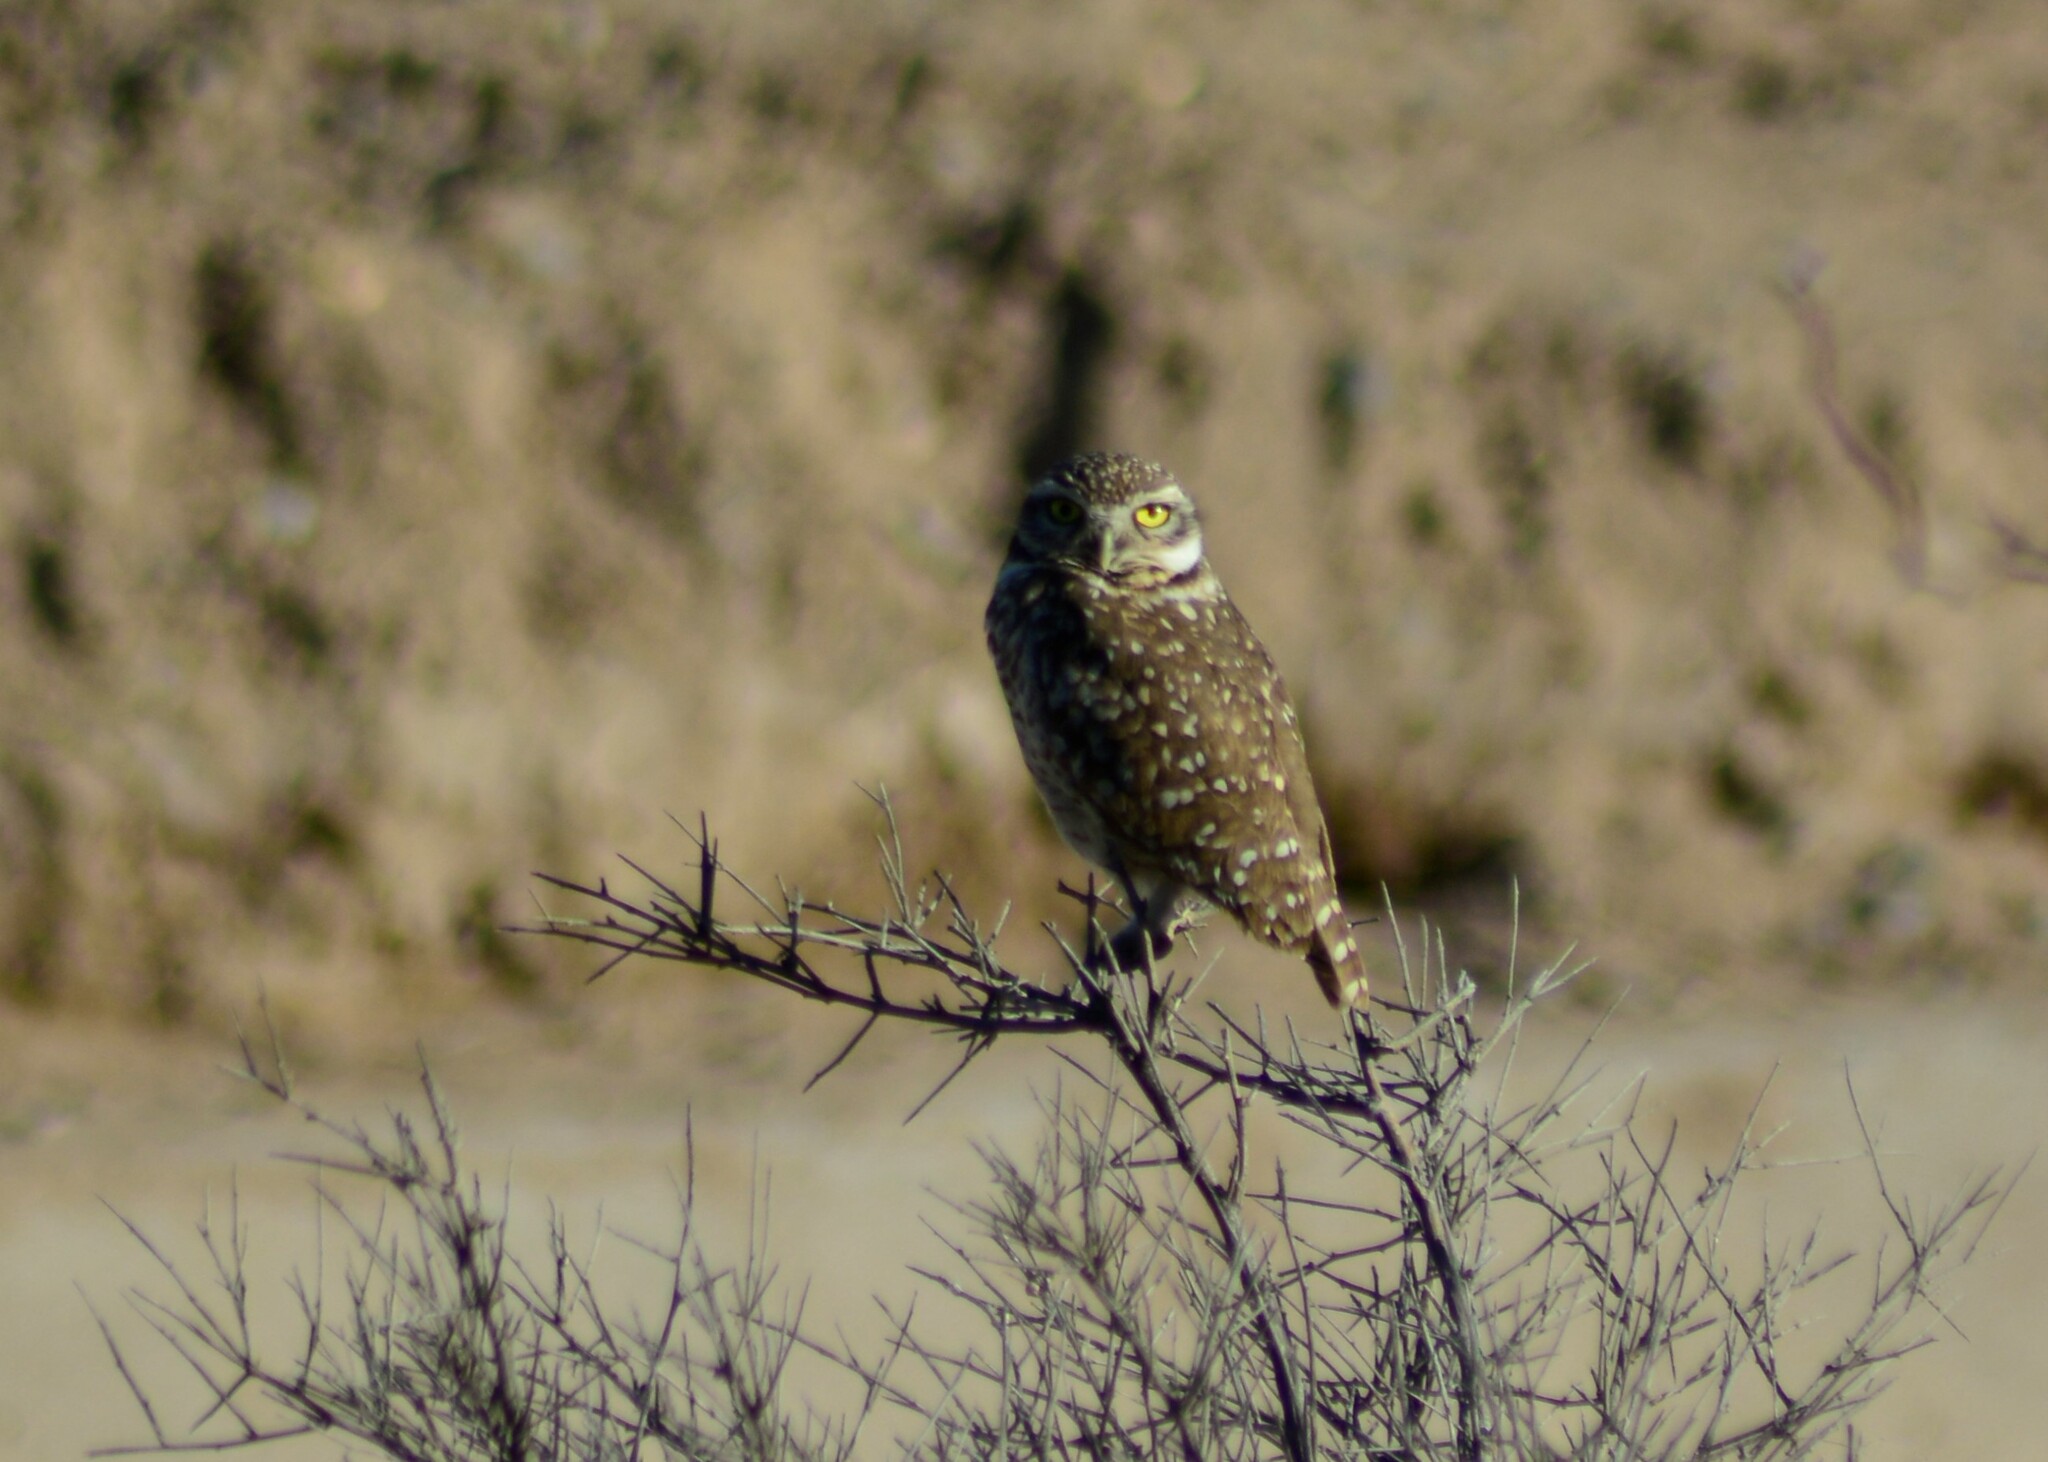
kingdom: Animalia
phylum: Chordata
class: Aves
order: Strigiformes
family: Strigidae
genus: Athene
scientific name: Athene cunicularia
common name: Burrowing owl
